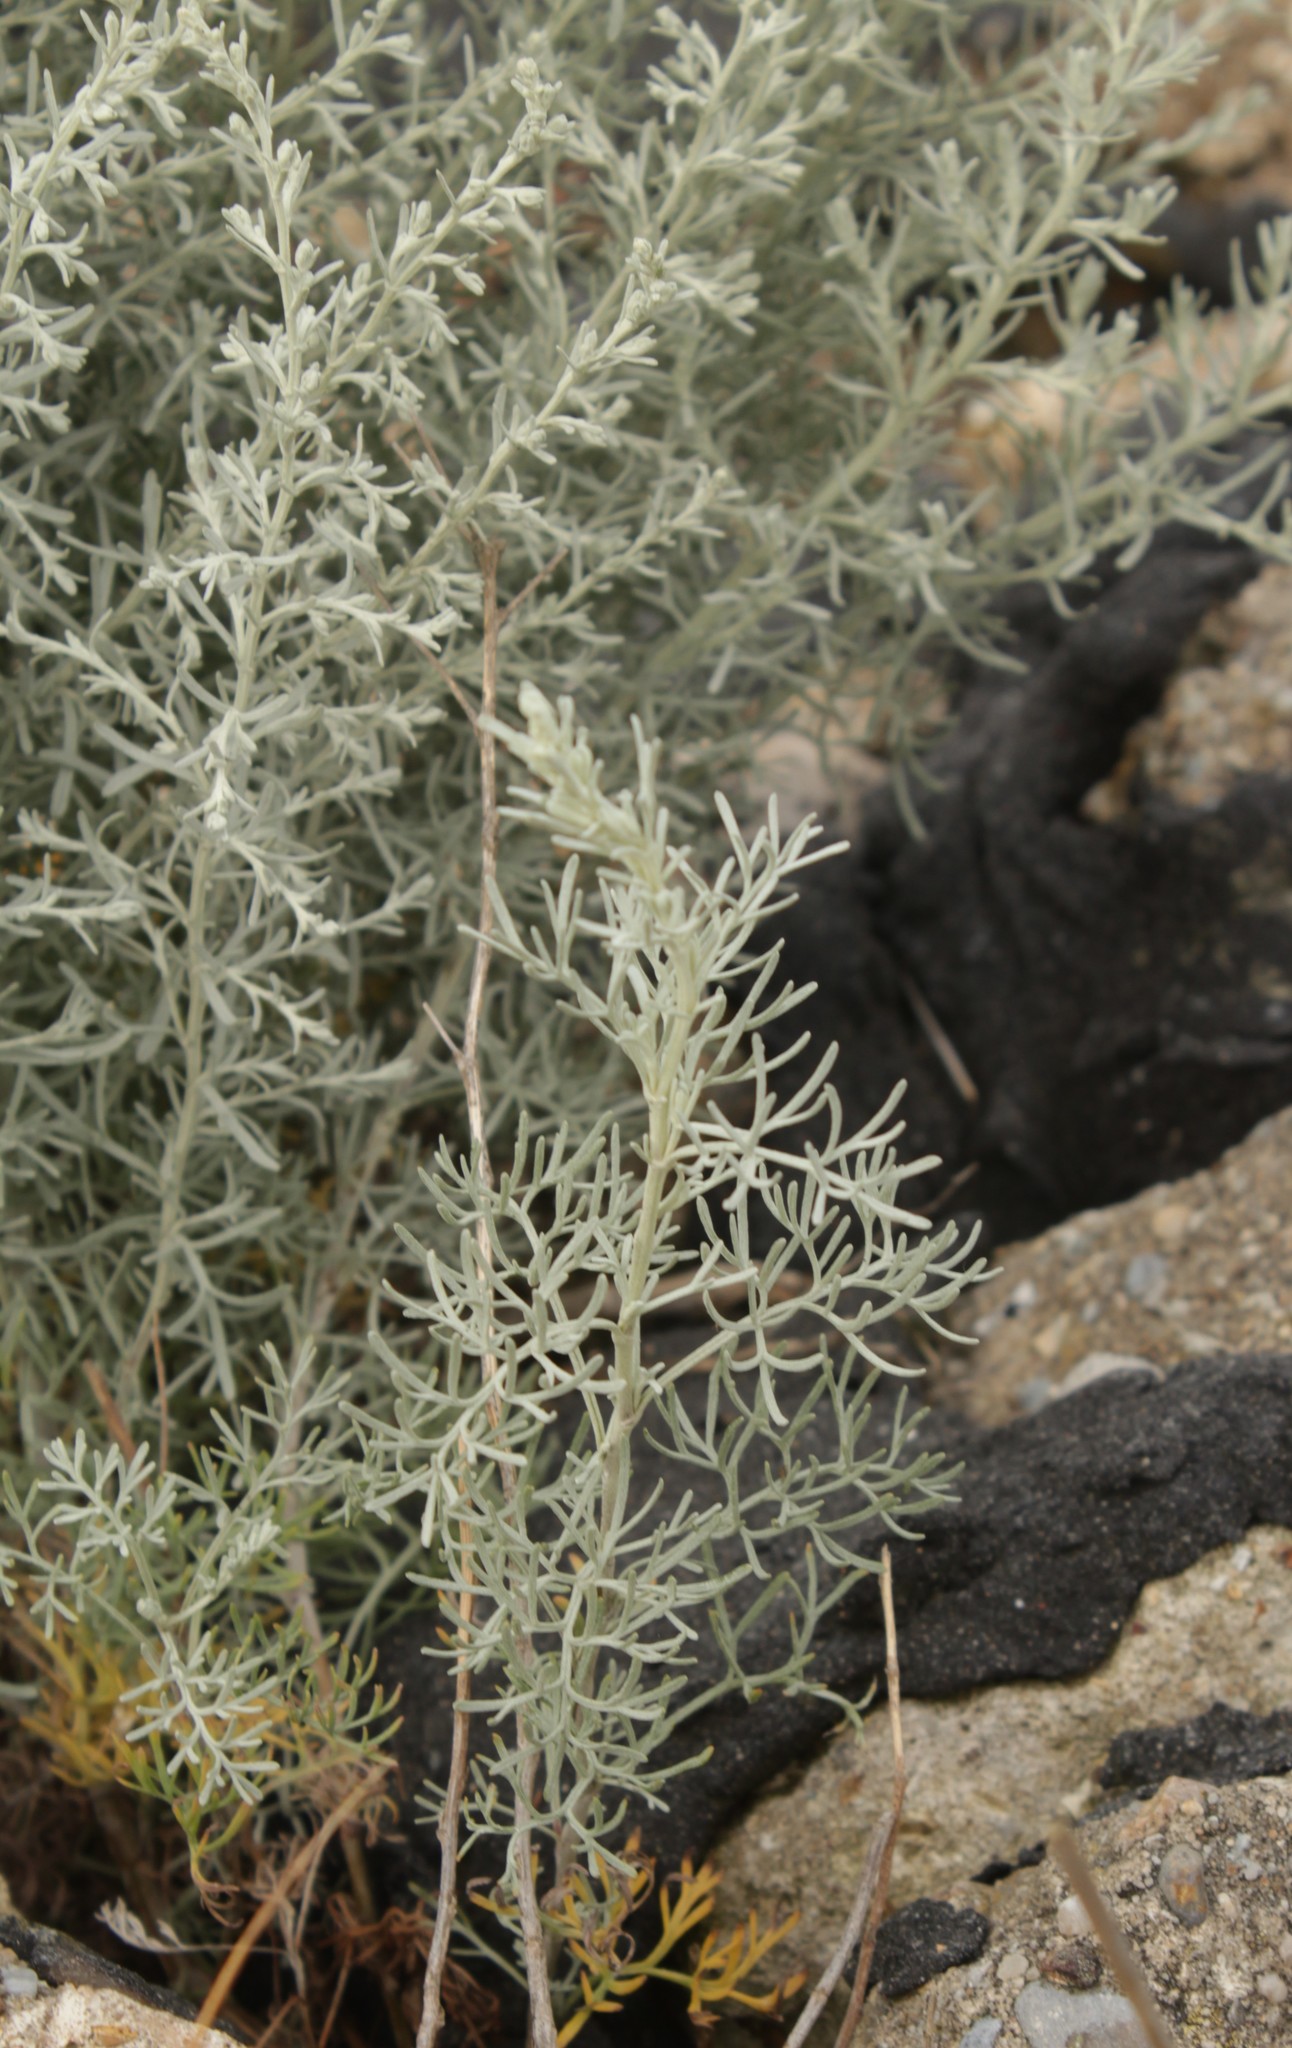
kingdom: Plantae
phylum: Tracheophyta
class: Magnoliopsida
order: Asterales
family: Asteraceae
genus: Artemisia
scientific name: Artemisia maritima
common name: Wormseed
